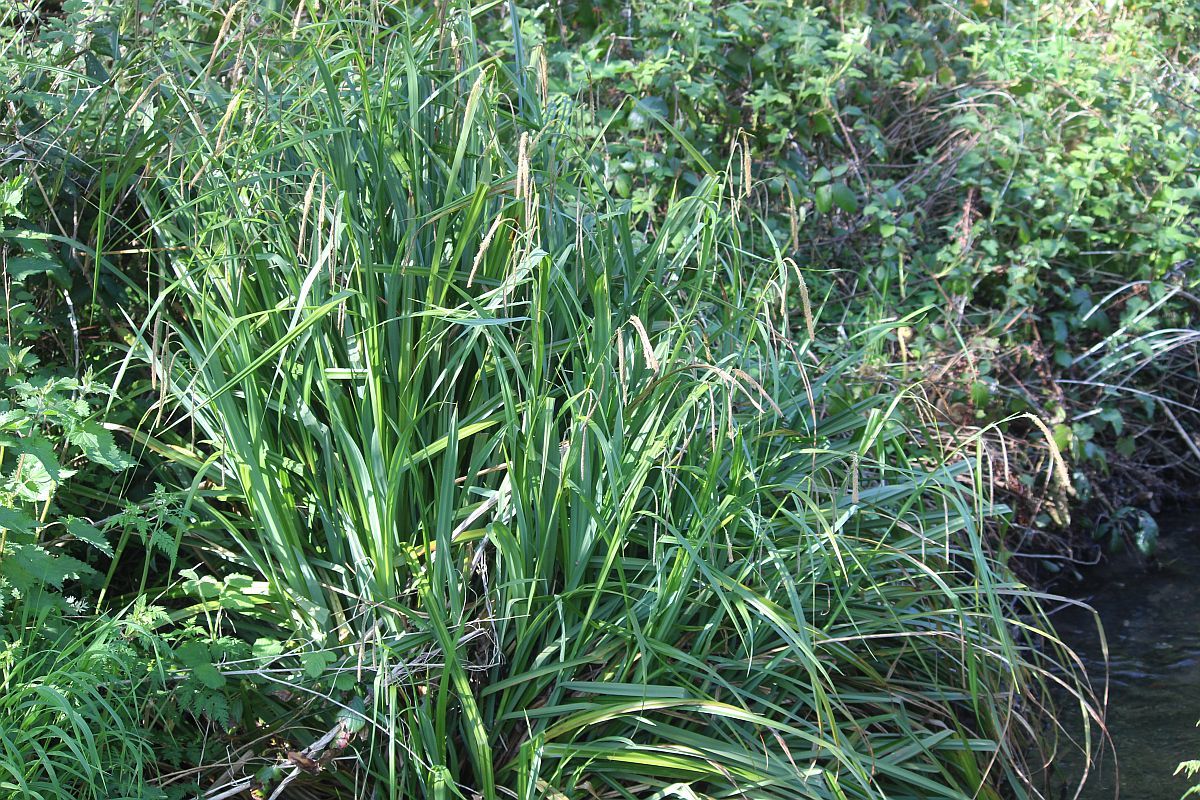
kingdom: Plantae
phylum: Tracheophyta
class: Liliopsida
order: Poales
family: Cyperaceae
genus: Carex
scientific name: Carex pendula
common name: Pendulous sedge
